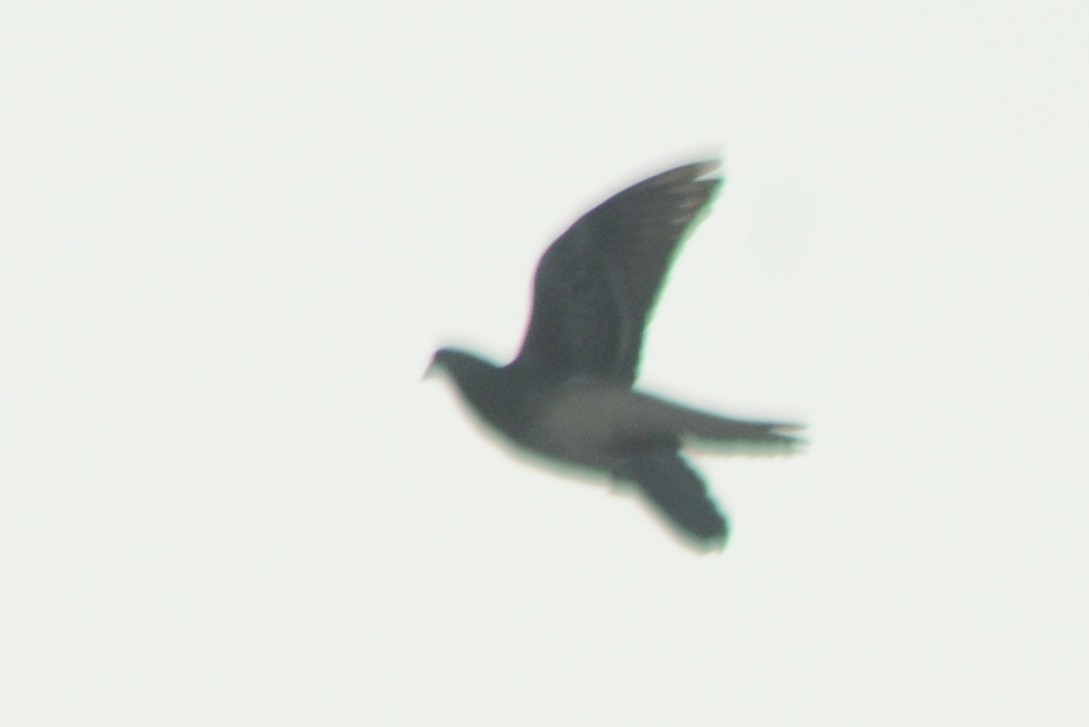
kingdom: Animalia
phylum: Chordata
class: Aves
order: Columbiformes
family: Columbidae
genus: Columba
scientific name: Columba livia
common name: Rock pigeon
